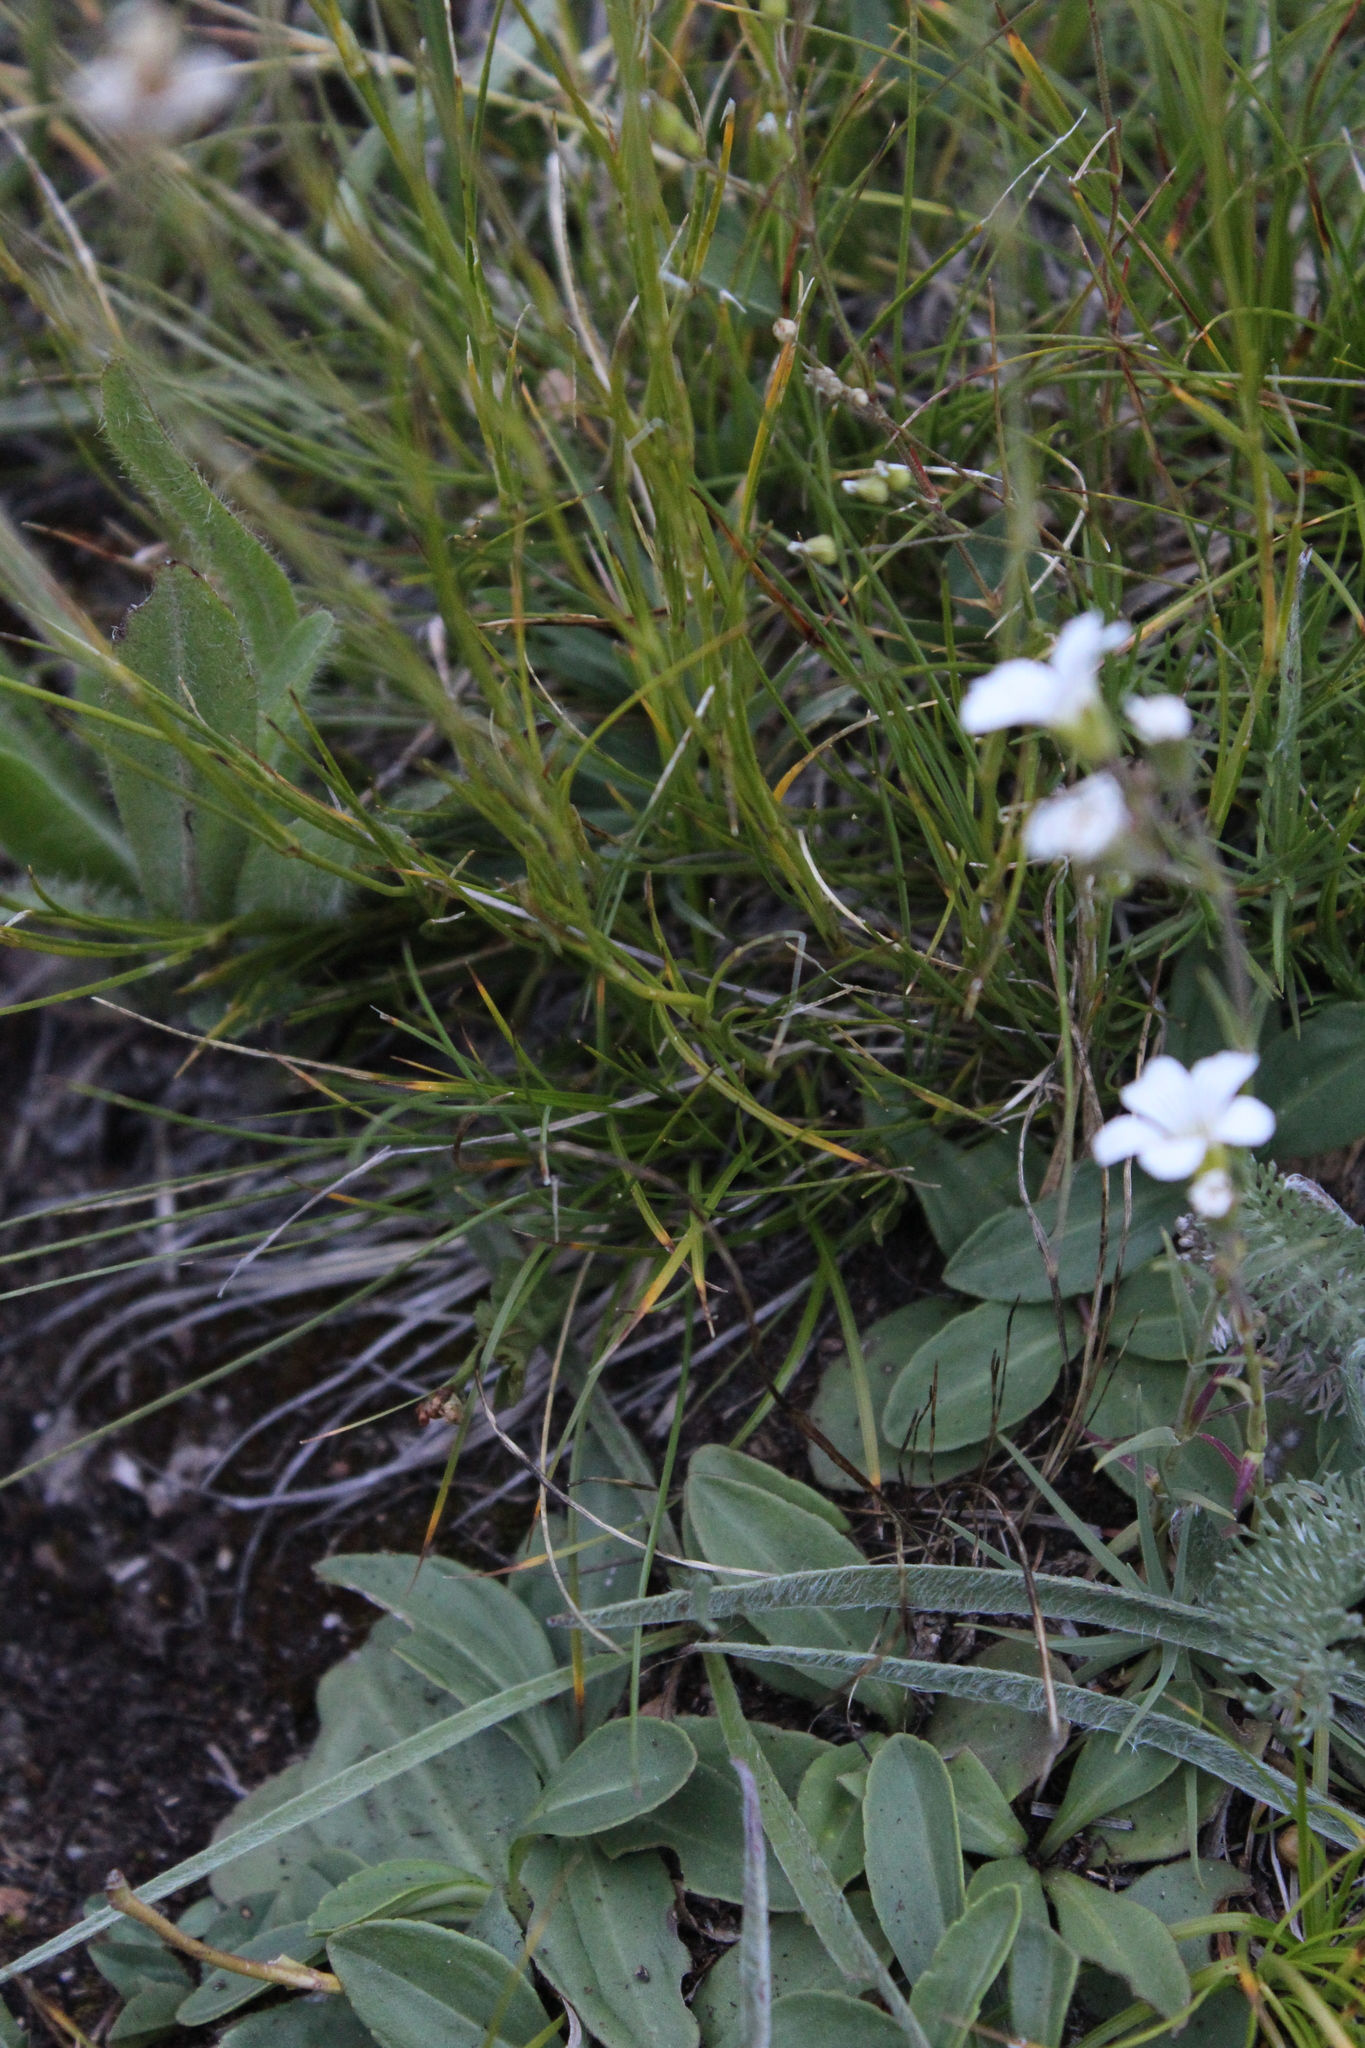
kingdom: Plantae
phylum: Tracheophyta
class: Magnoliopsida
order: Caryophyllales
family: Caryophyllaceae
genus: Eremogone
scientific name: Eremogone lychnidea
